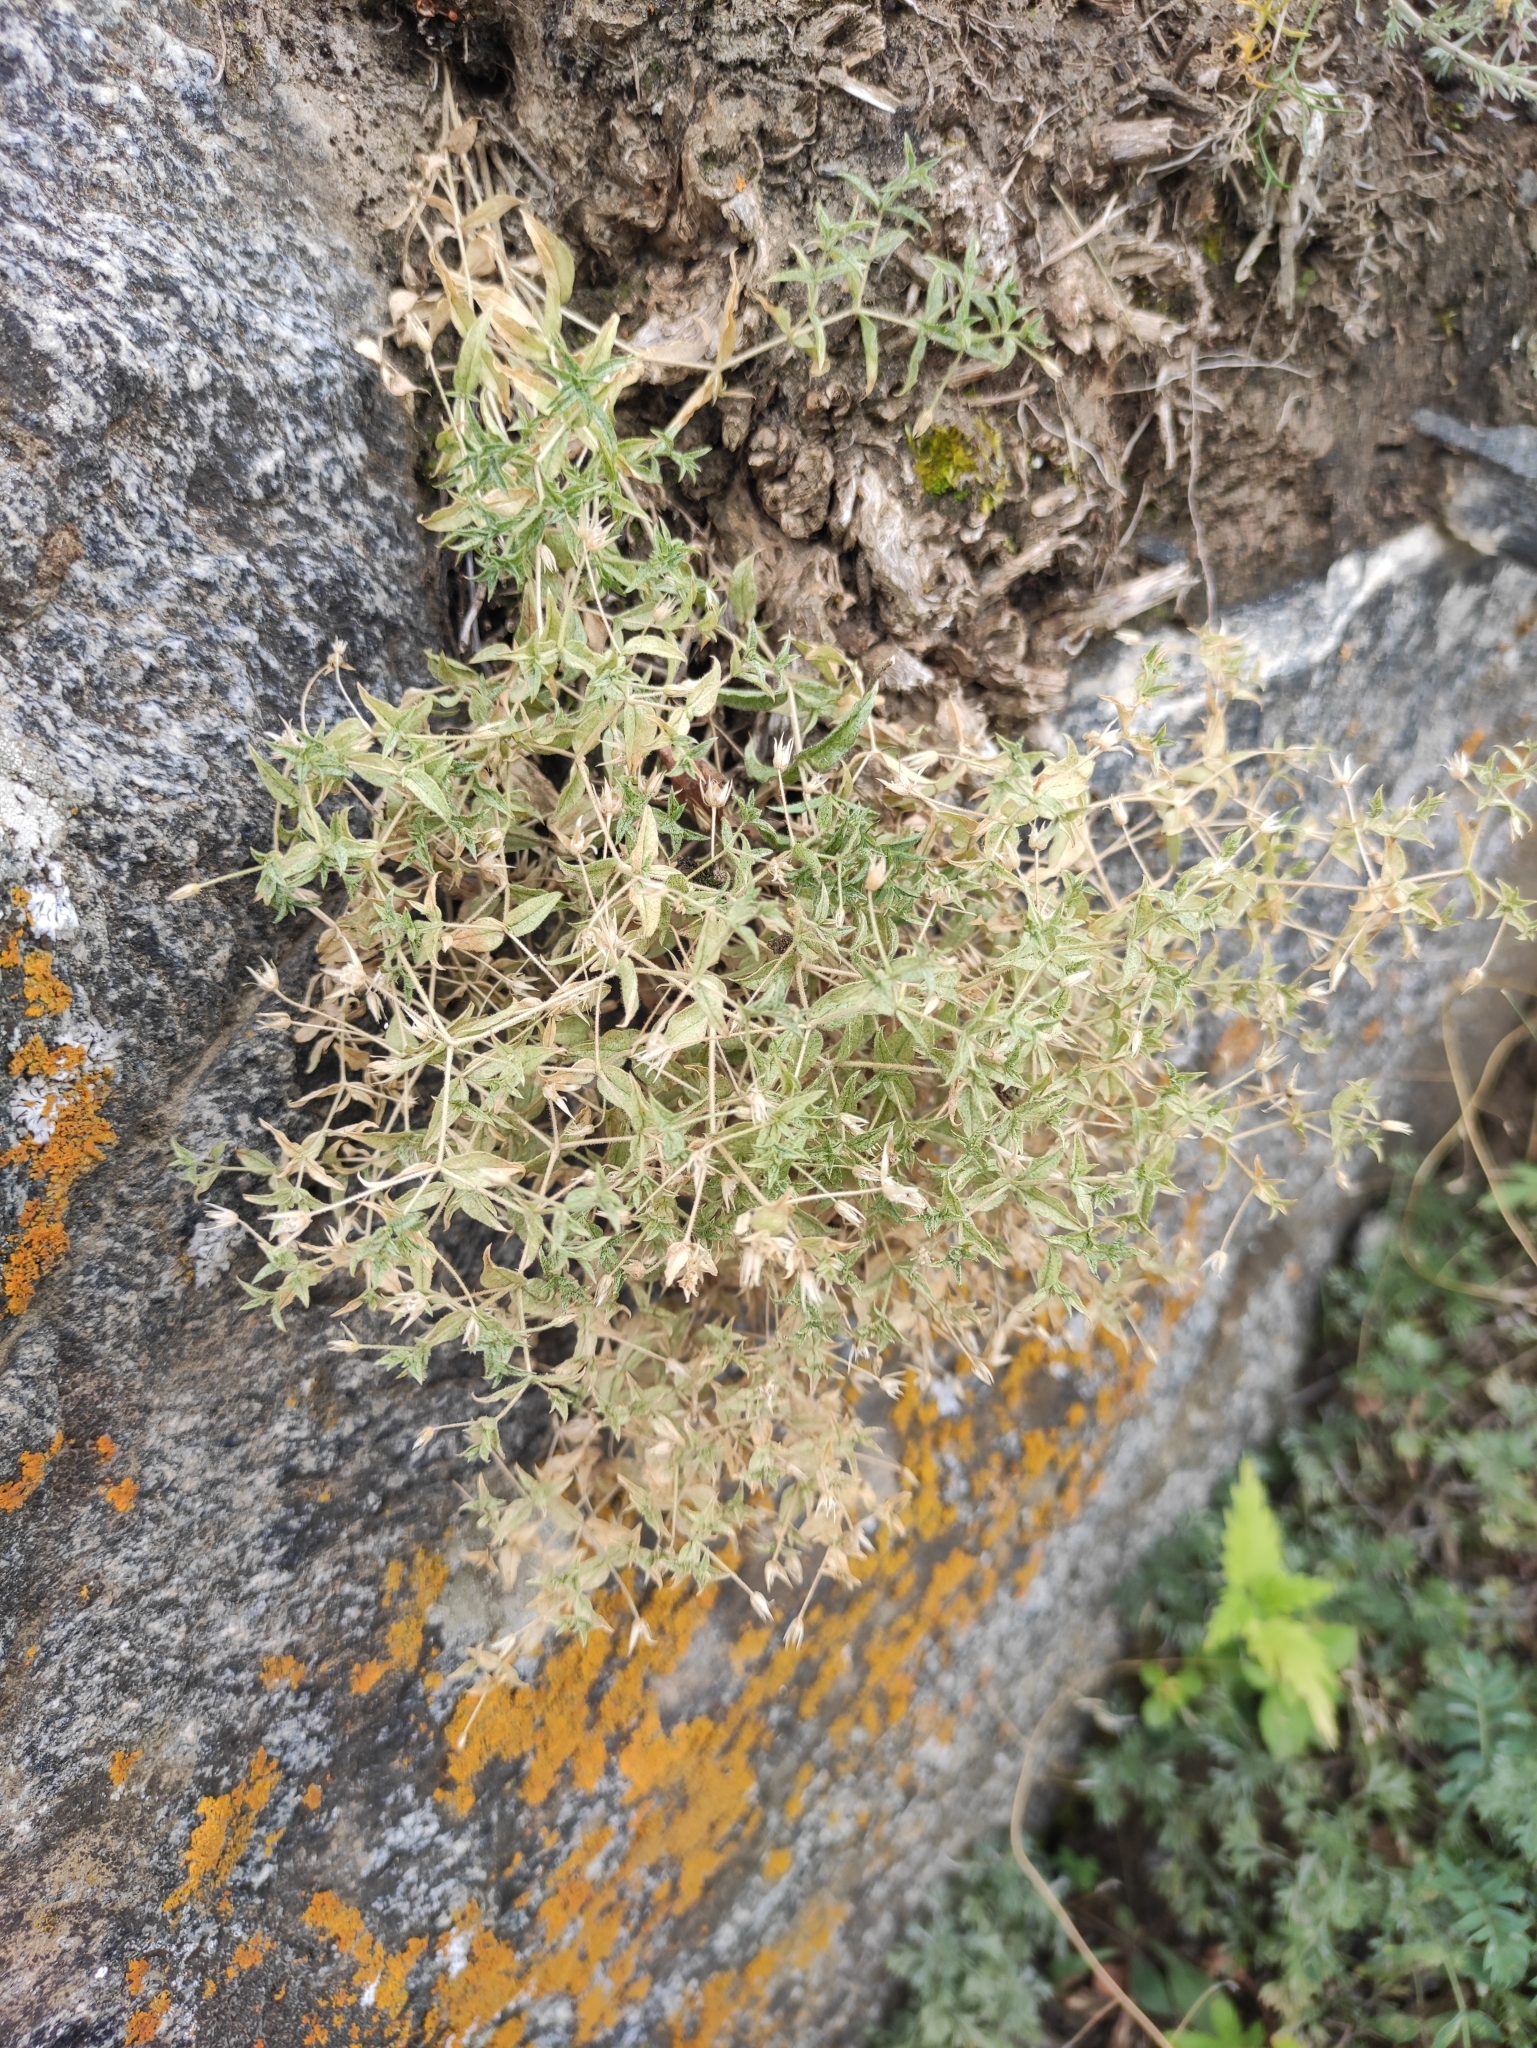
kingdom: Plantae
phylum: Tracheophyta
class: Magnoliopsida
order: Caryophyllales
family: Caryophyllaceae
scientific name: Caryophyllaceae
